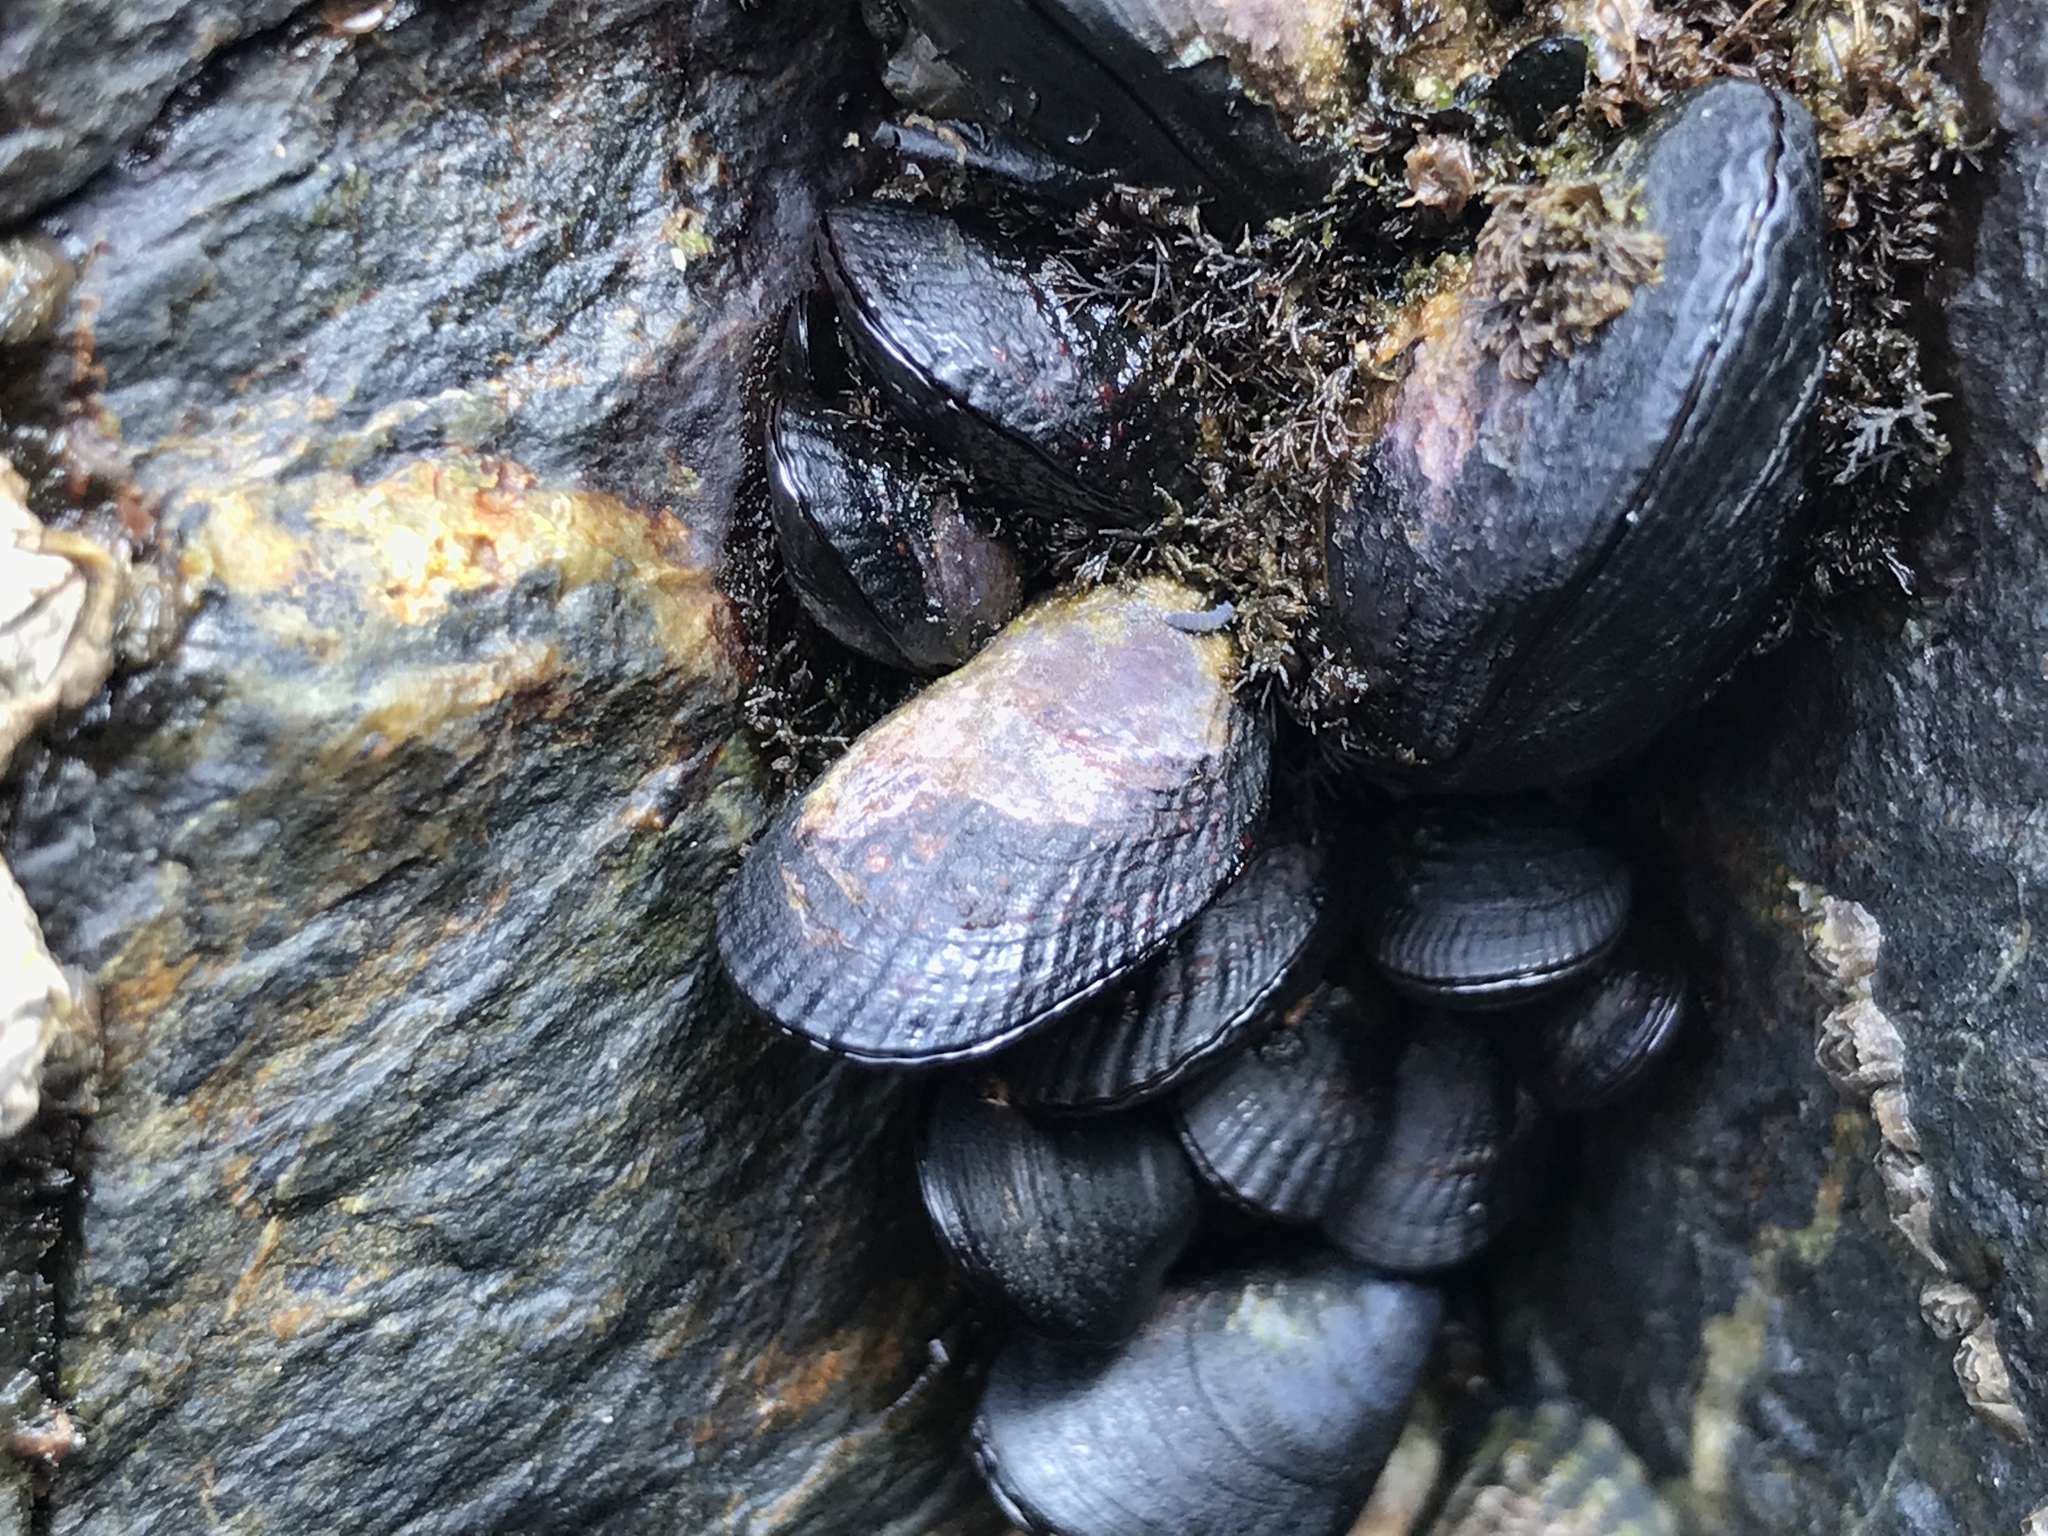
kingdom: Animalia
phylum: Mollusca
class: Bivalvia
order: Mytilida
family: Mytilidae
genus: Perumytilus
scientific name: Perumytilus purpuratus
